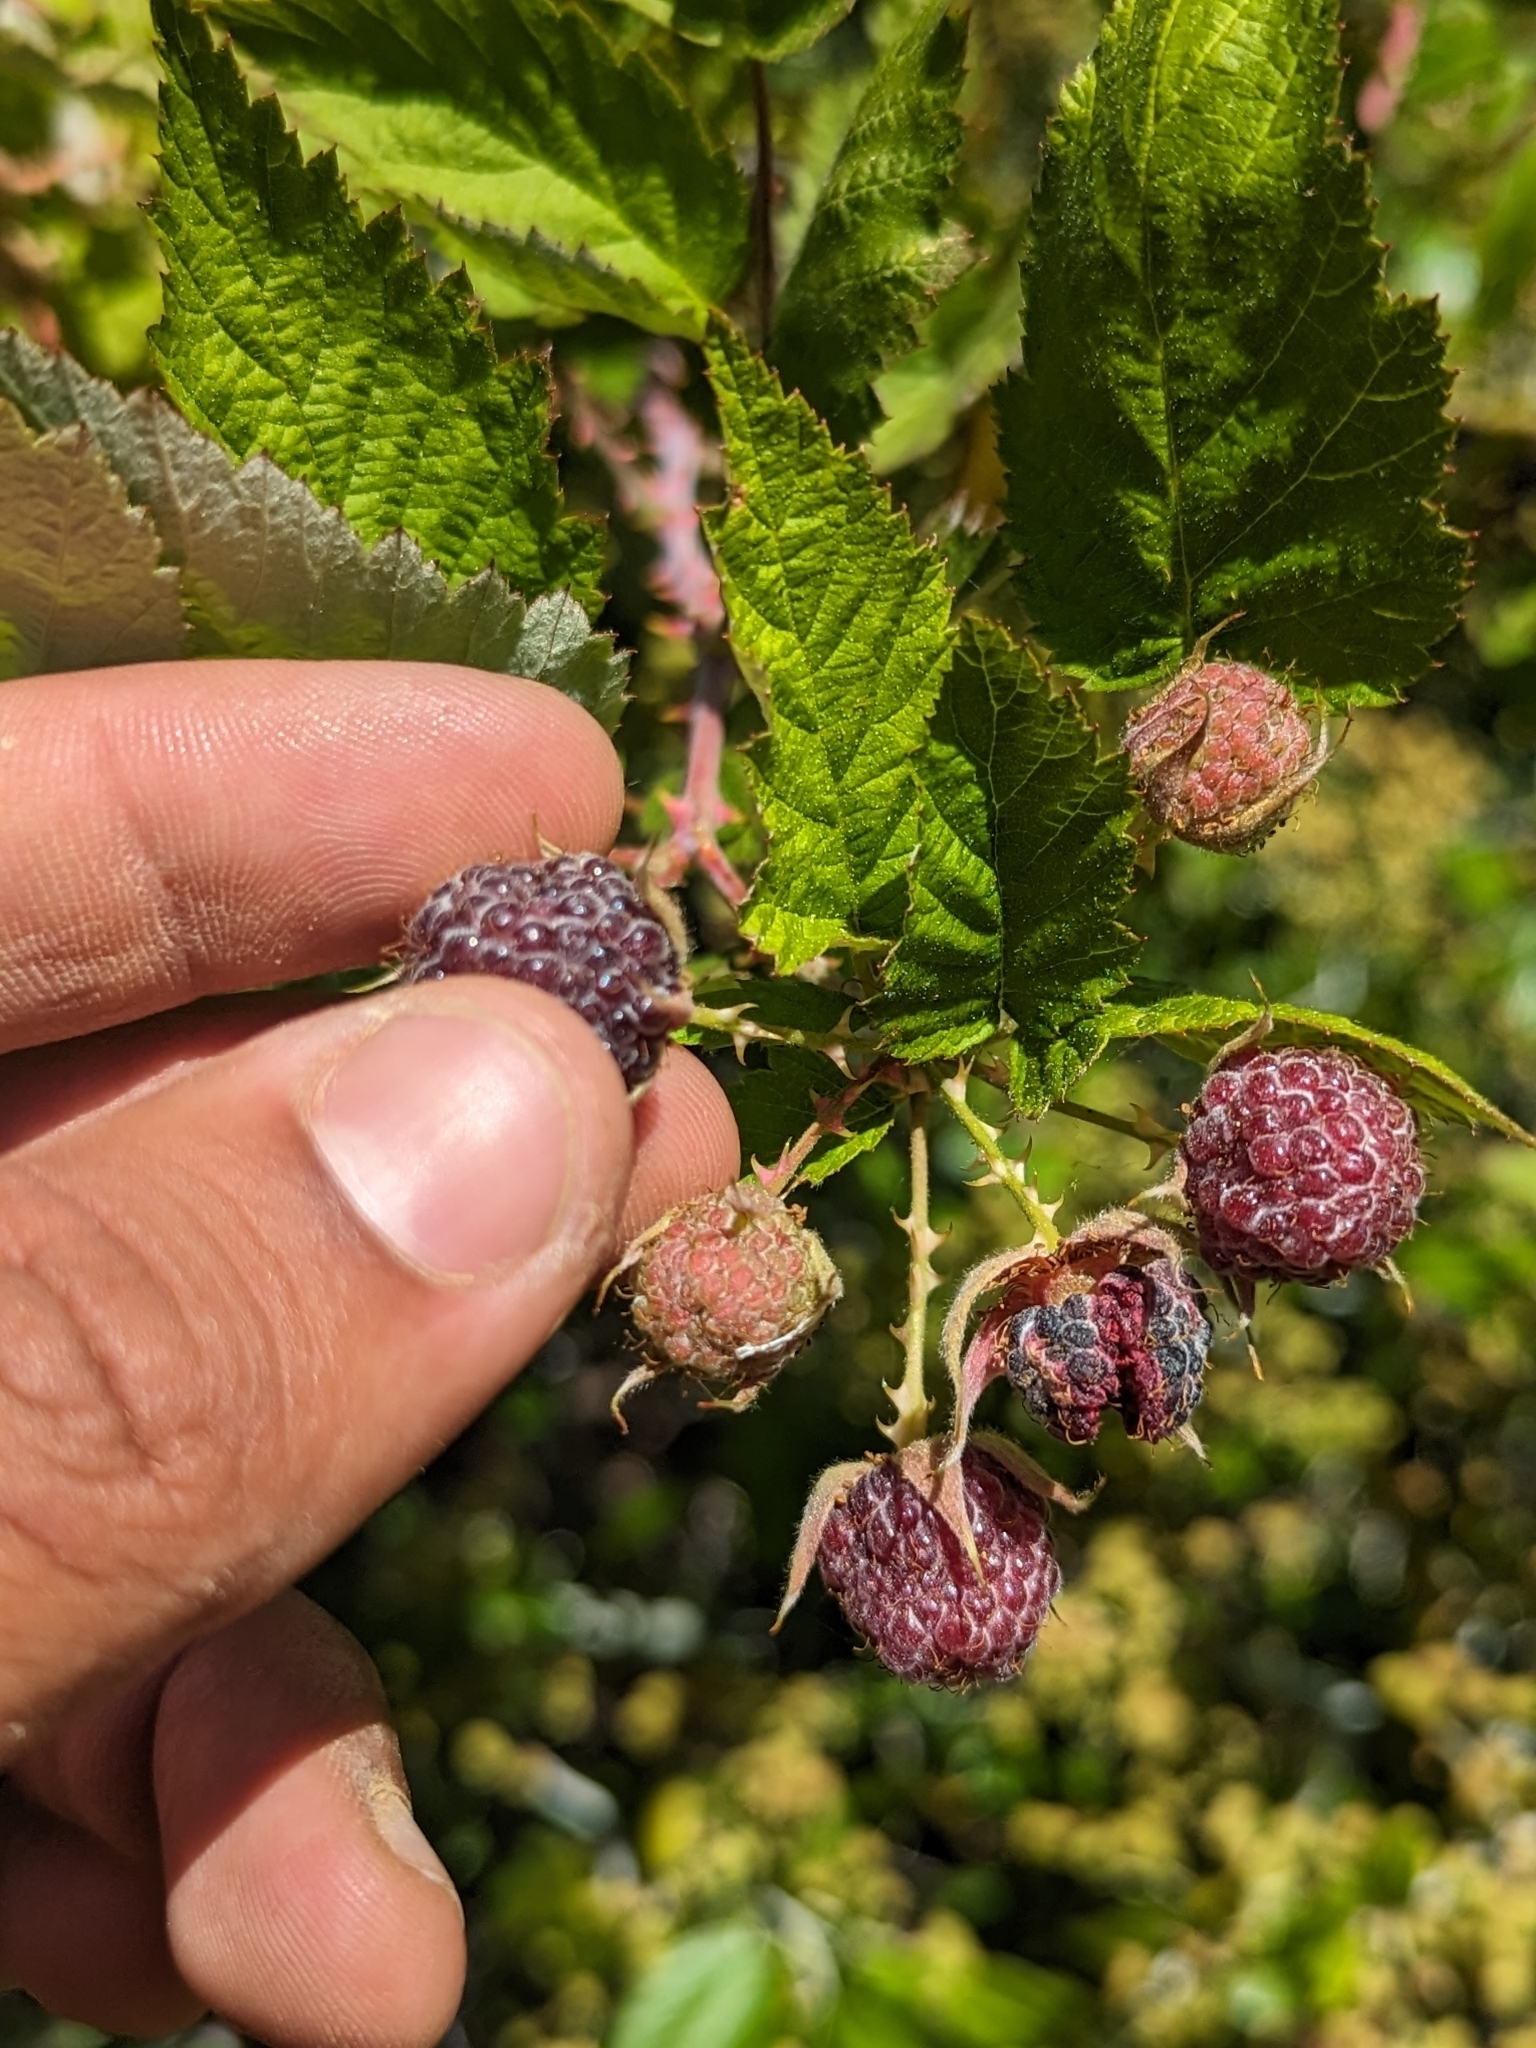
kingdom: Plantae
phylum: Tracheophyta
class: Magnoliopsida
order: Rosales
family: Rosaceae
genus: Rubus
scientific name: Rubus leucodermis
